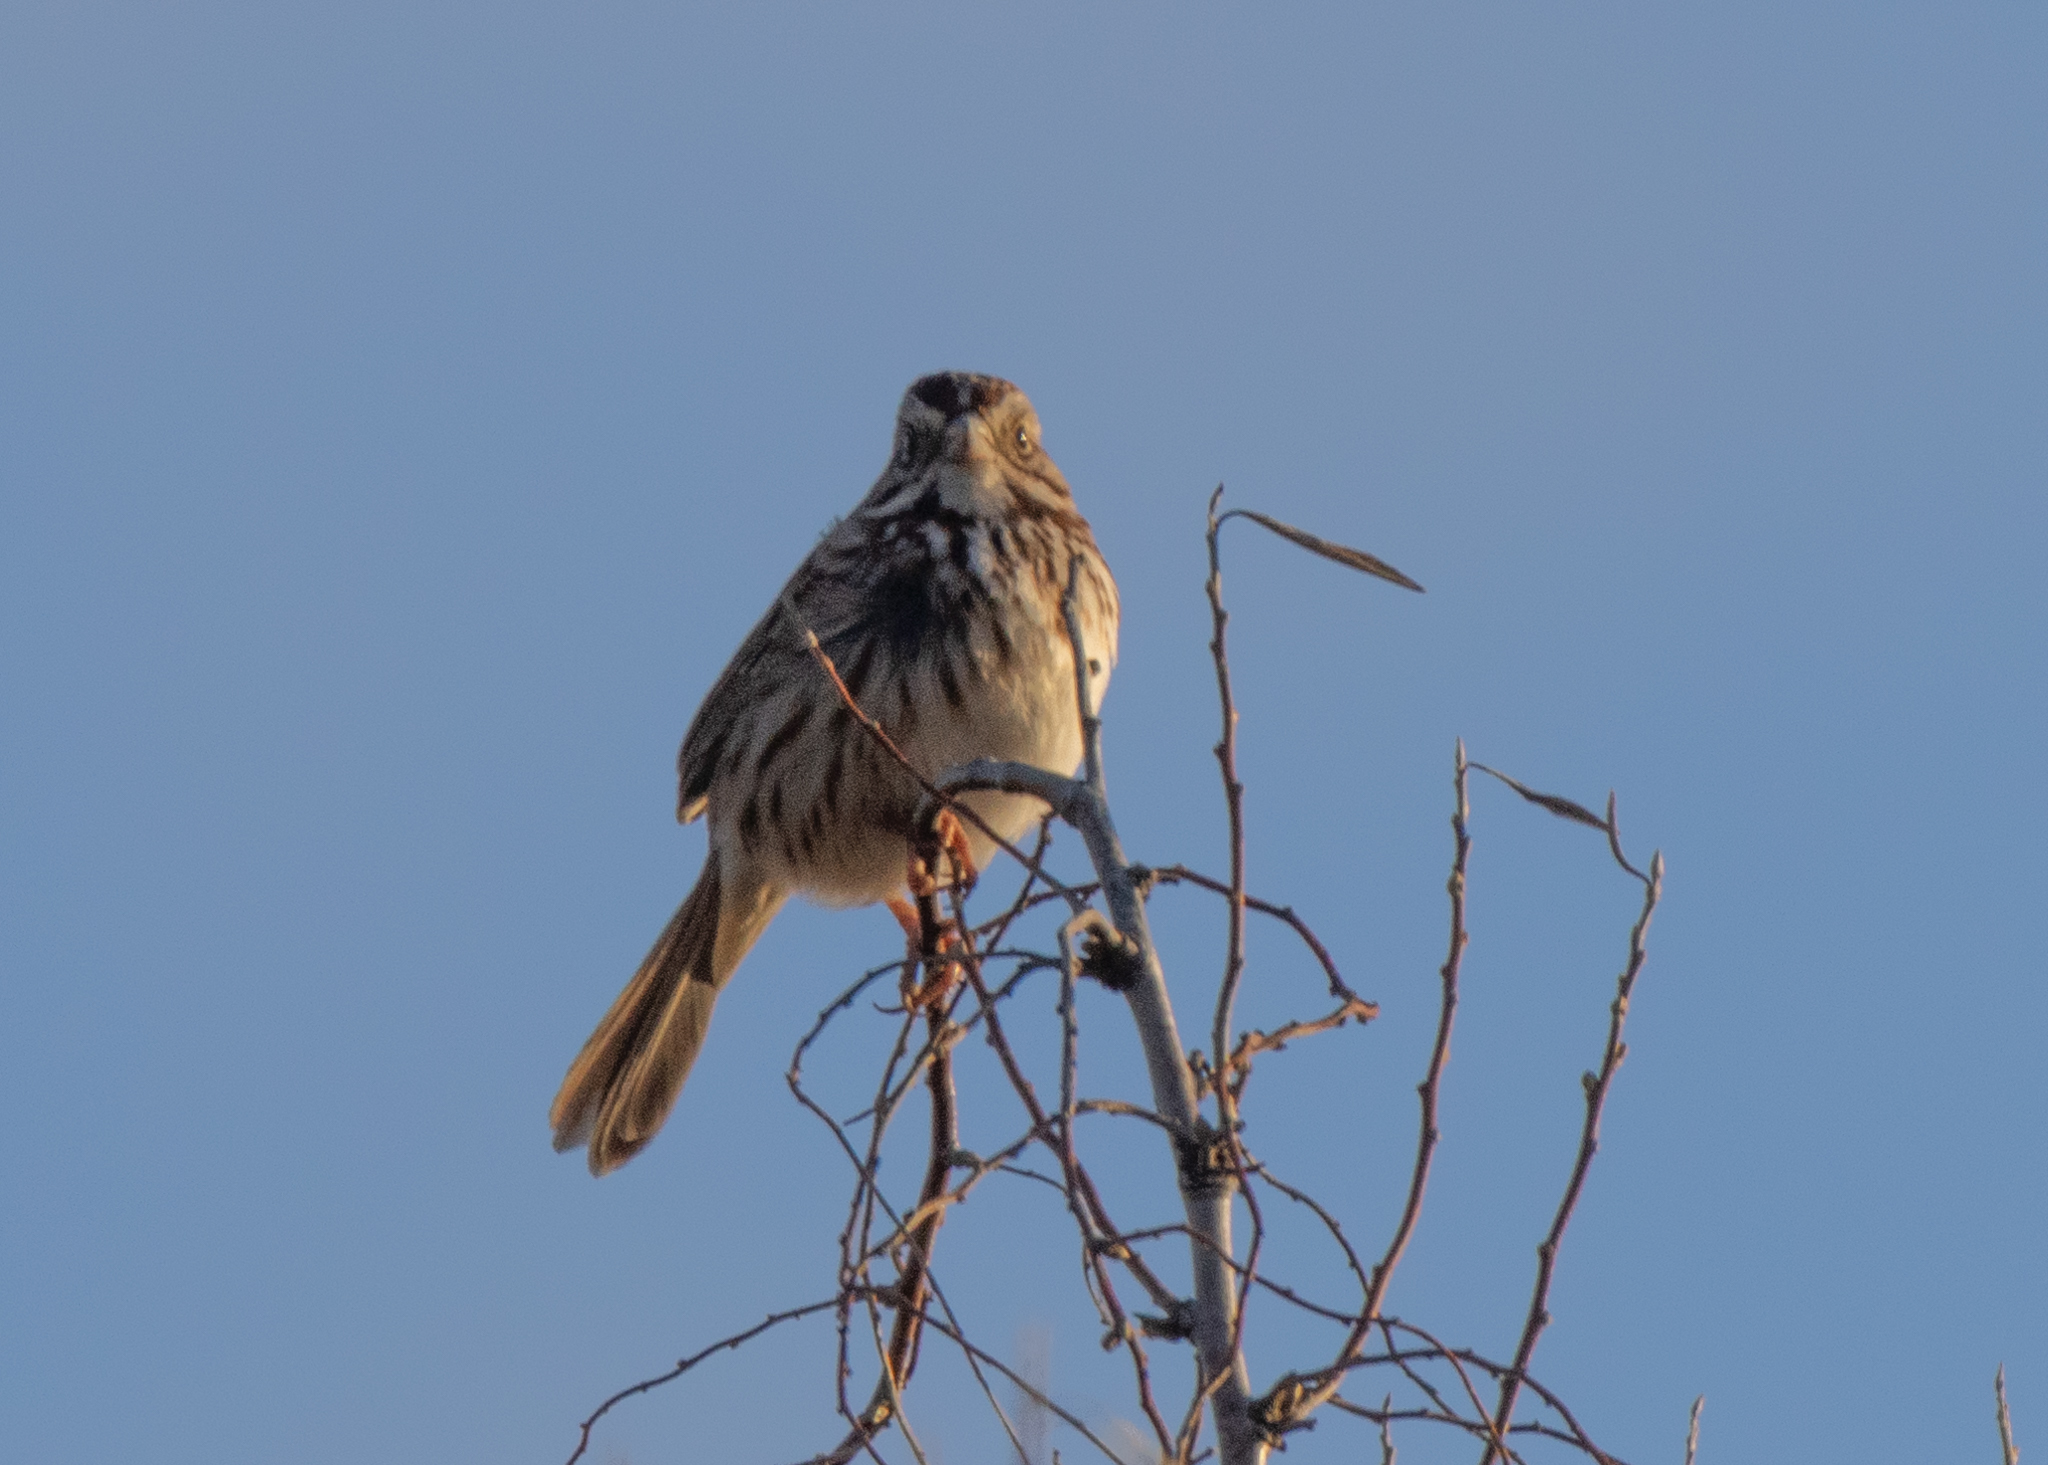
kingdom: Animalia
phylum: Chordata
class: Aves
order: Passeriformes
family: Passerellidae
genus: Melospiza
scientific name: Melospiza melodia
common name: Song sparrow
